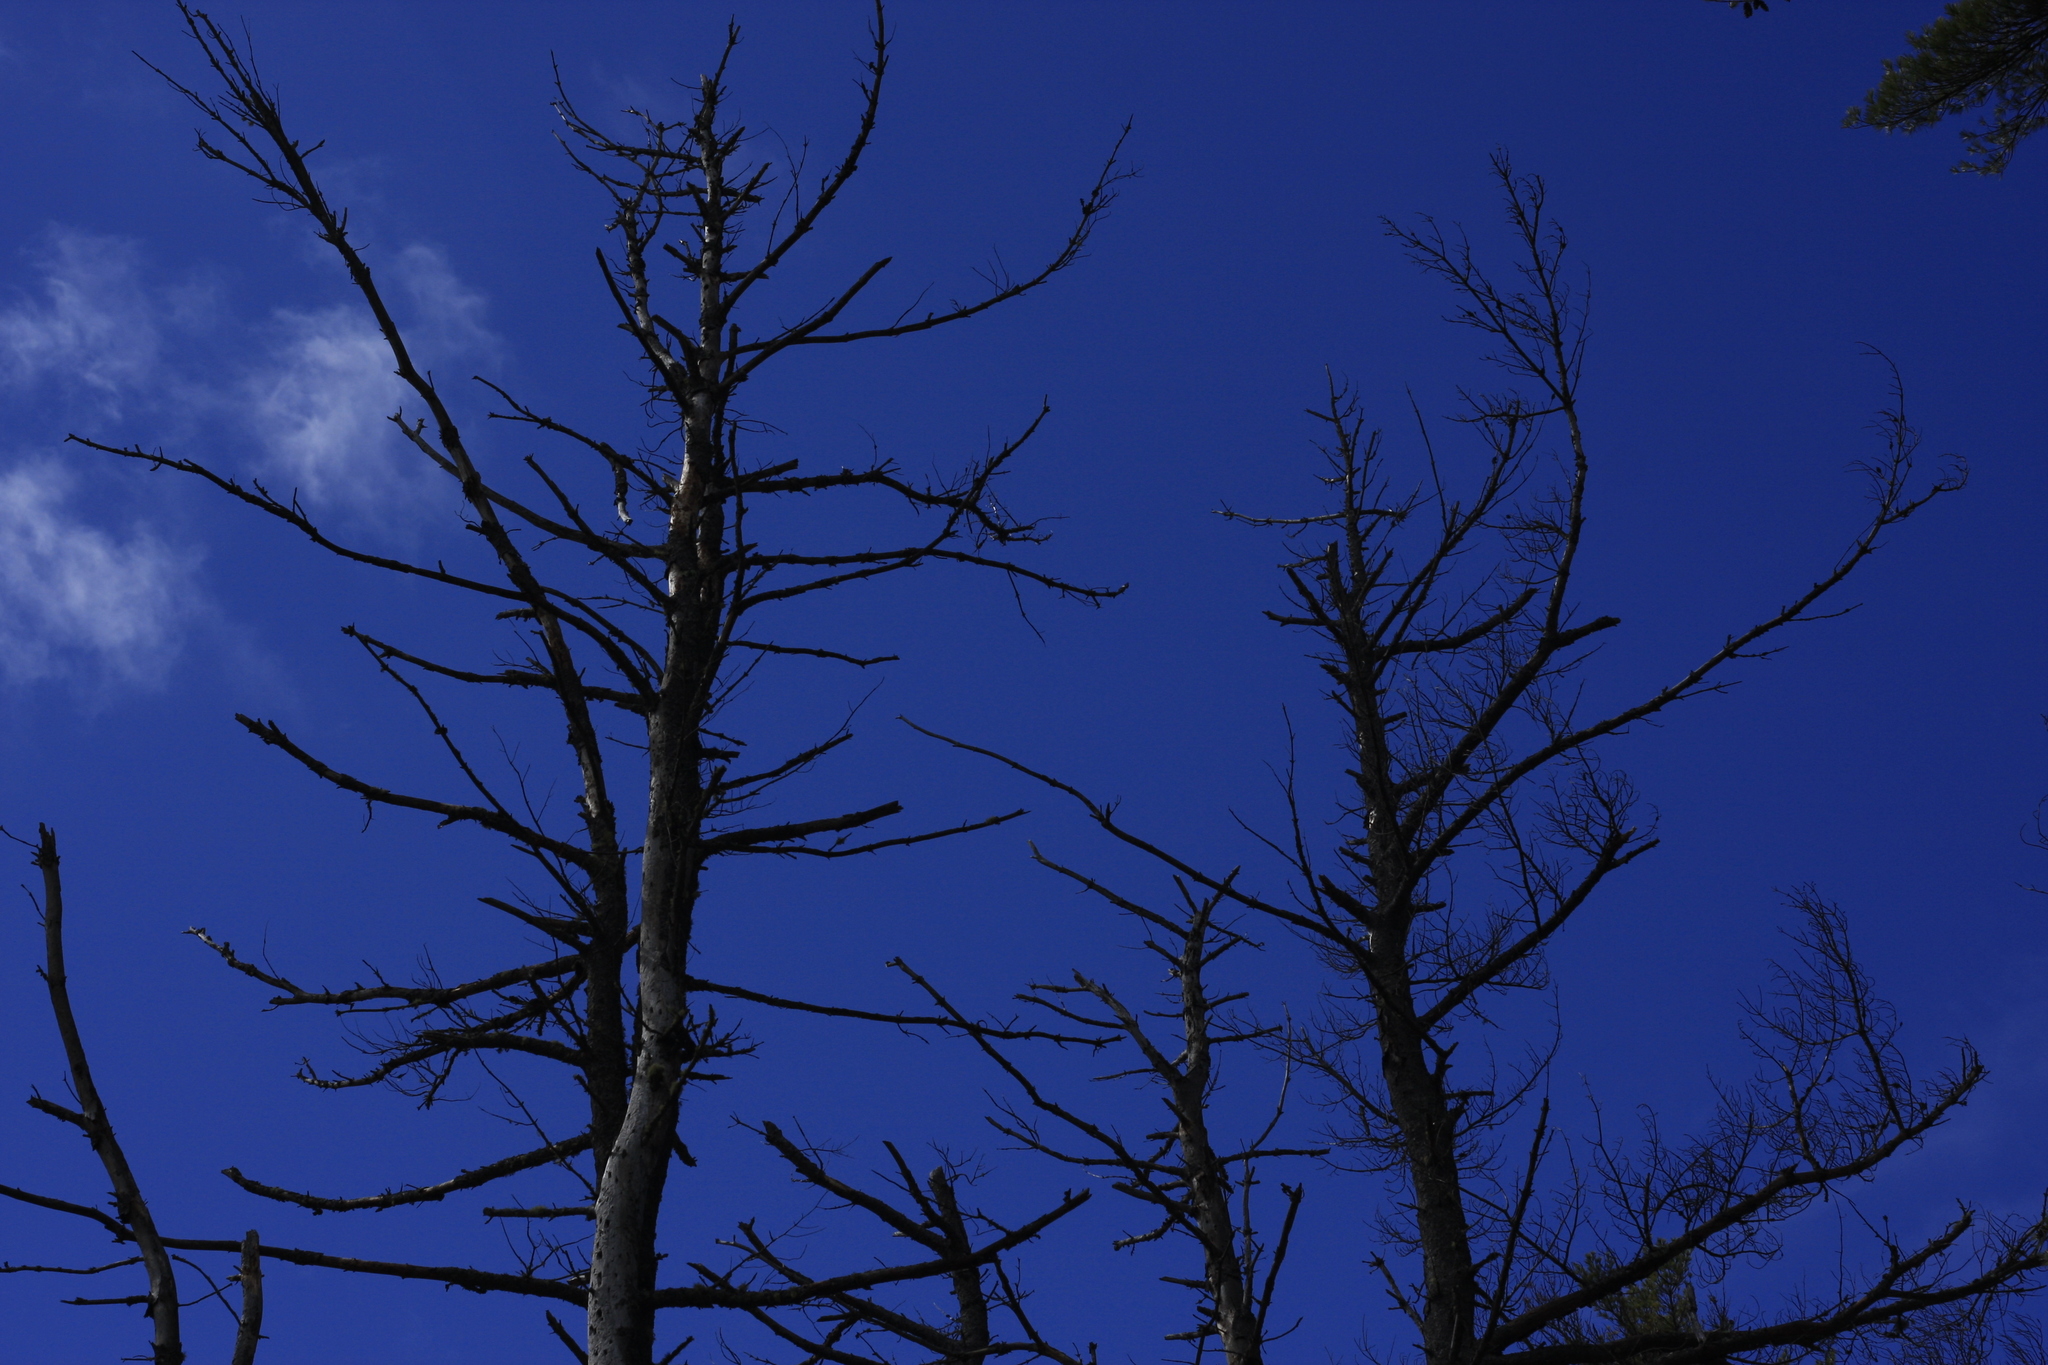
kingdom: Plantae
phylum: Tracheophyta
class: Pinopsida
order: Pinales
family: Pinaceae
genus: Pinus
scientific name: Pinus strobus
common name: Weymouth pine
